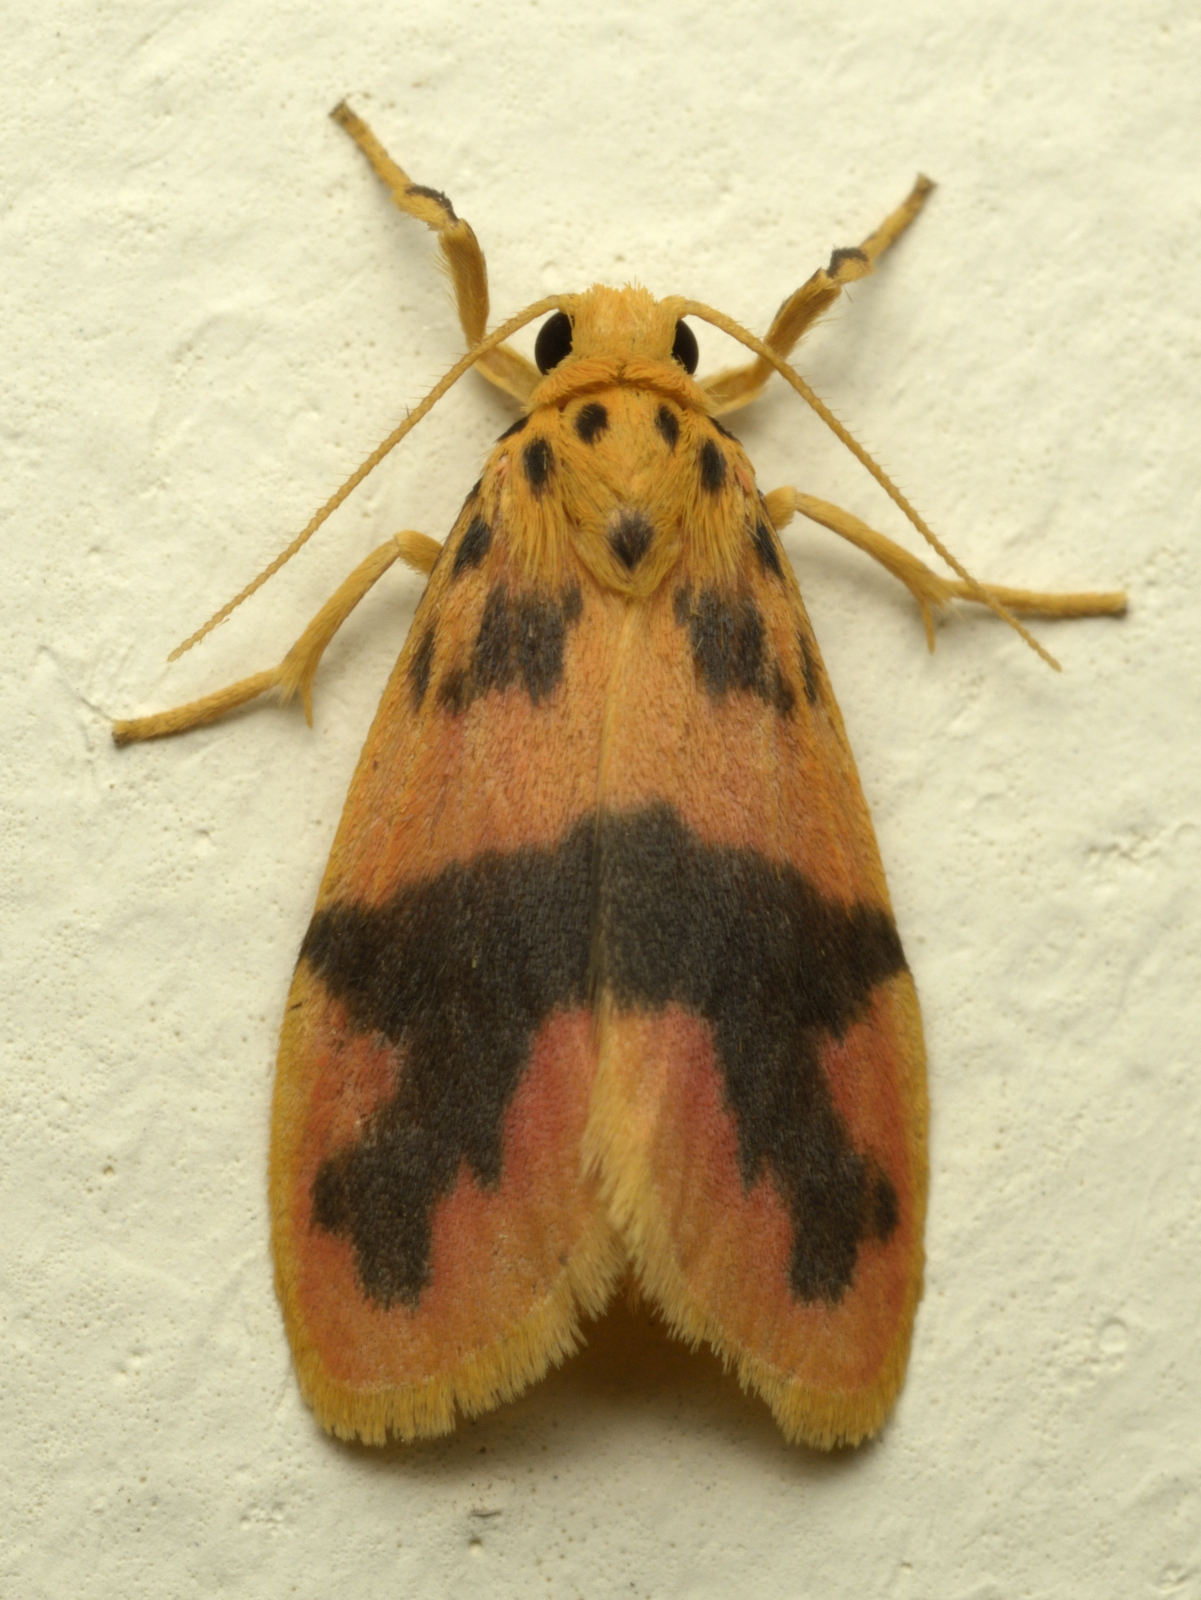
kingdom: Animalia
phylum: Arthropoda
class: Insecta
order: Lepidoptera
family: Erebidae
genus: Stigmatophora
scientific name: Stigmatophora rhodophila
